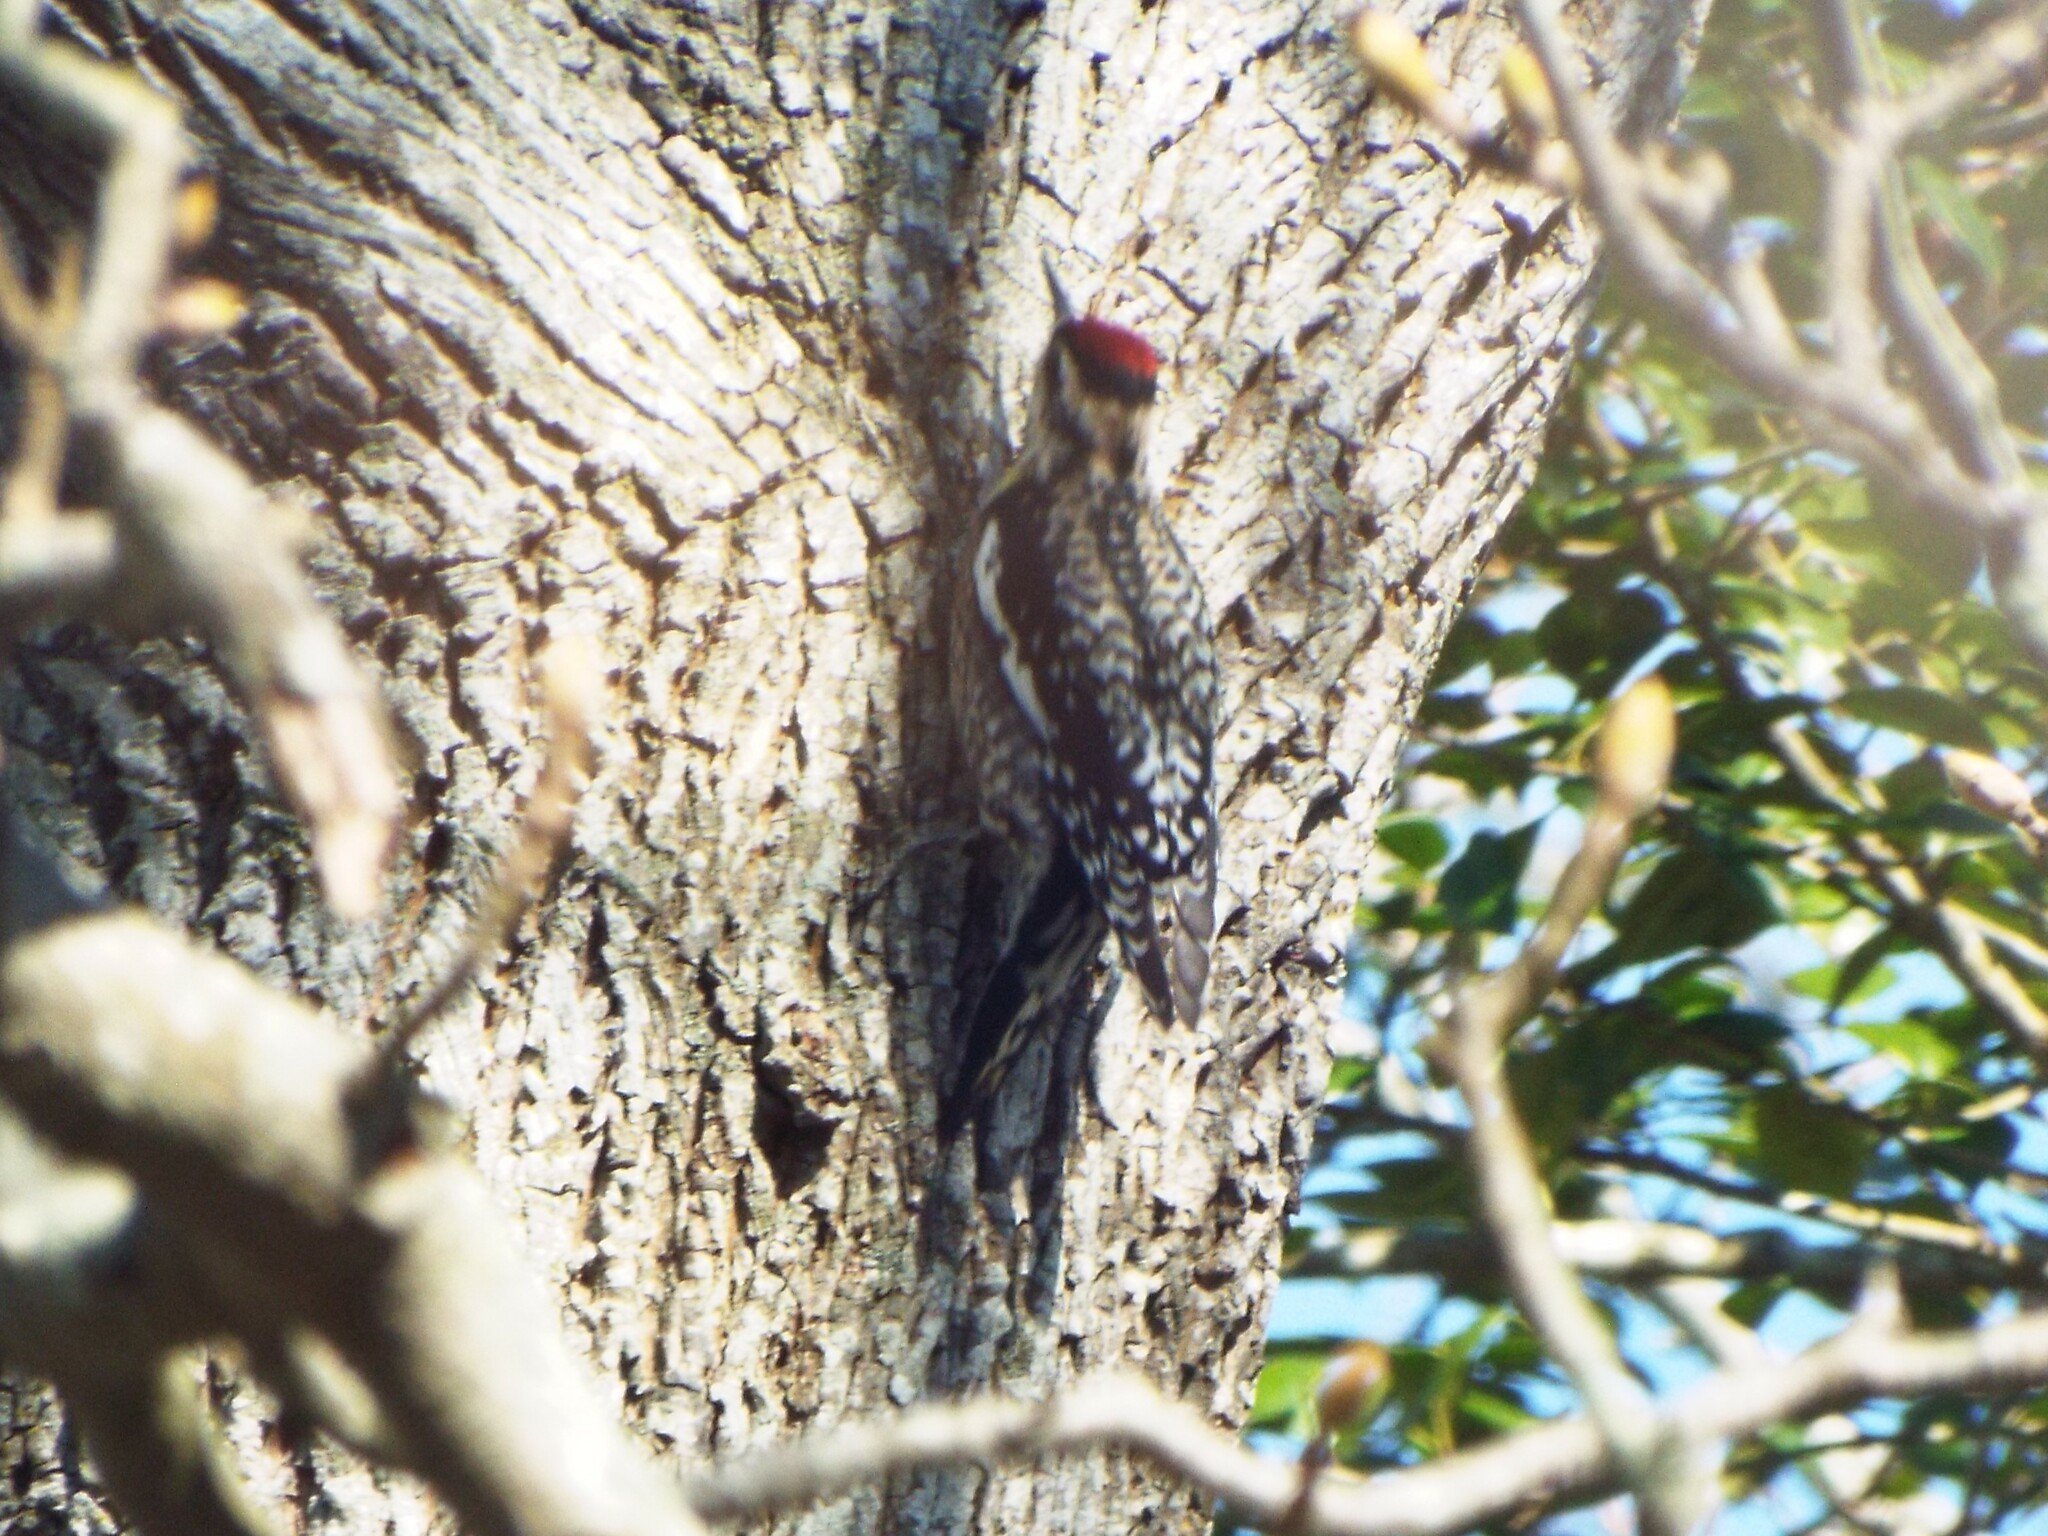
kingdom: Animalia
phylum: Chordata
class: Aves
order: Piciformes
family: Picidae
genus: Sphyrapicus
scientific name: Sphyrapicus varius
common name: Yellow-bellied sapsucker
